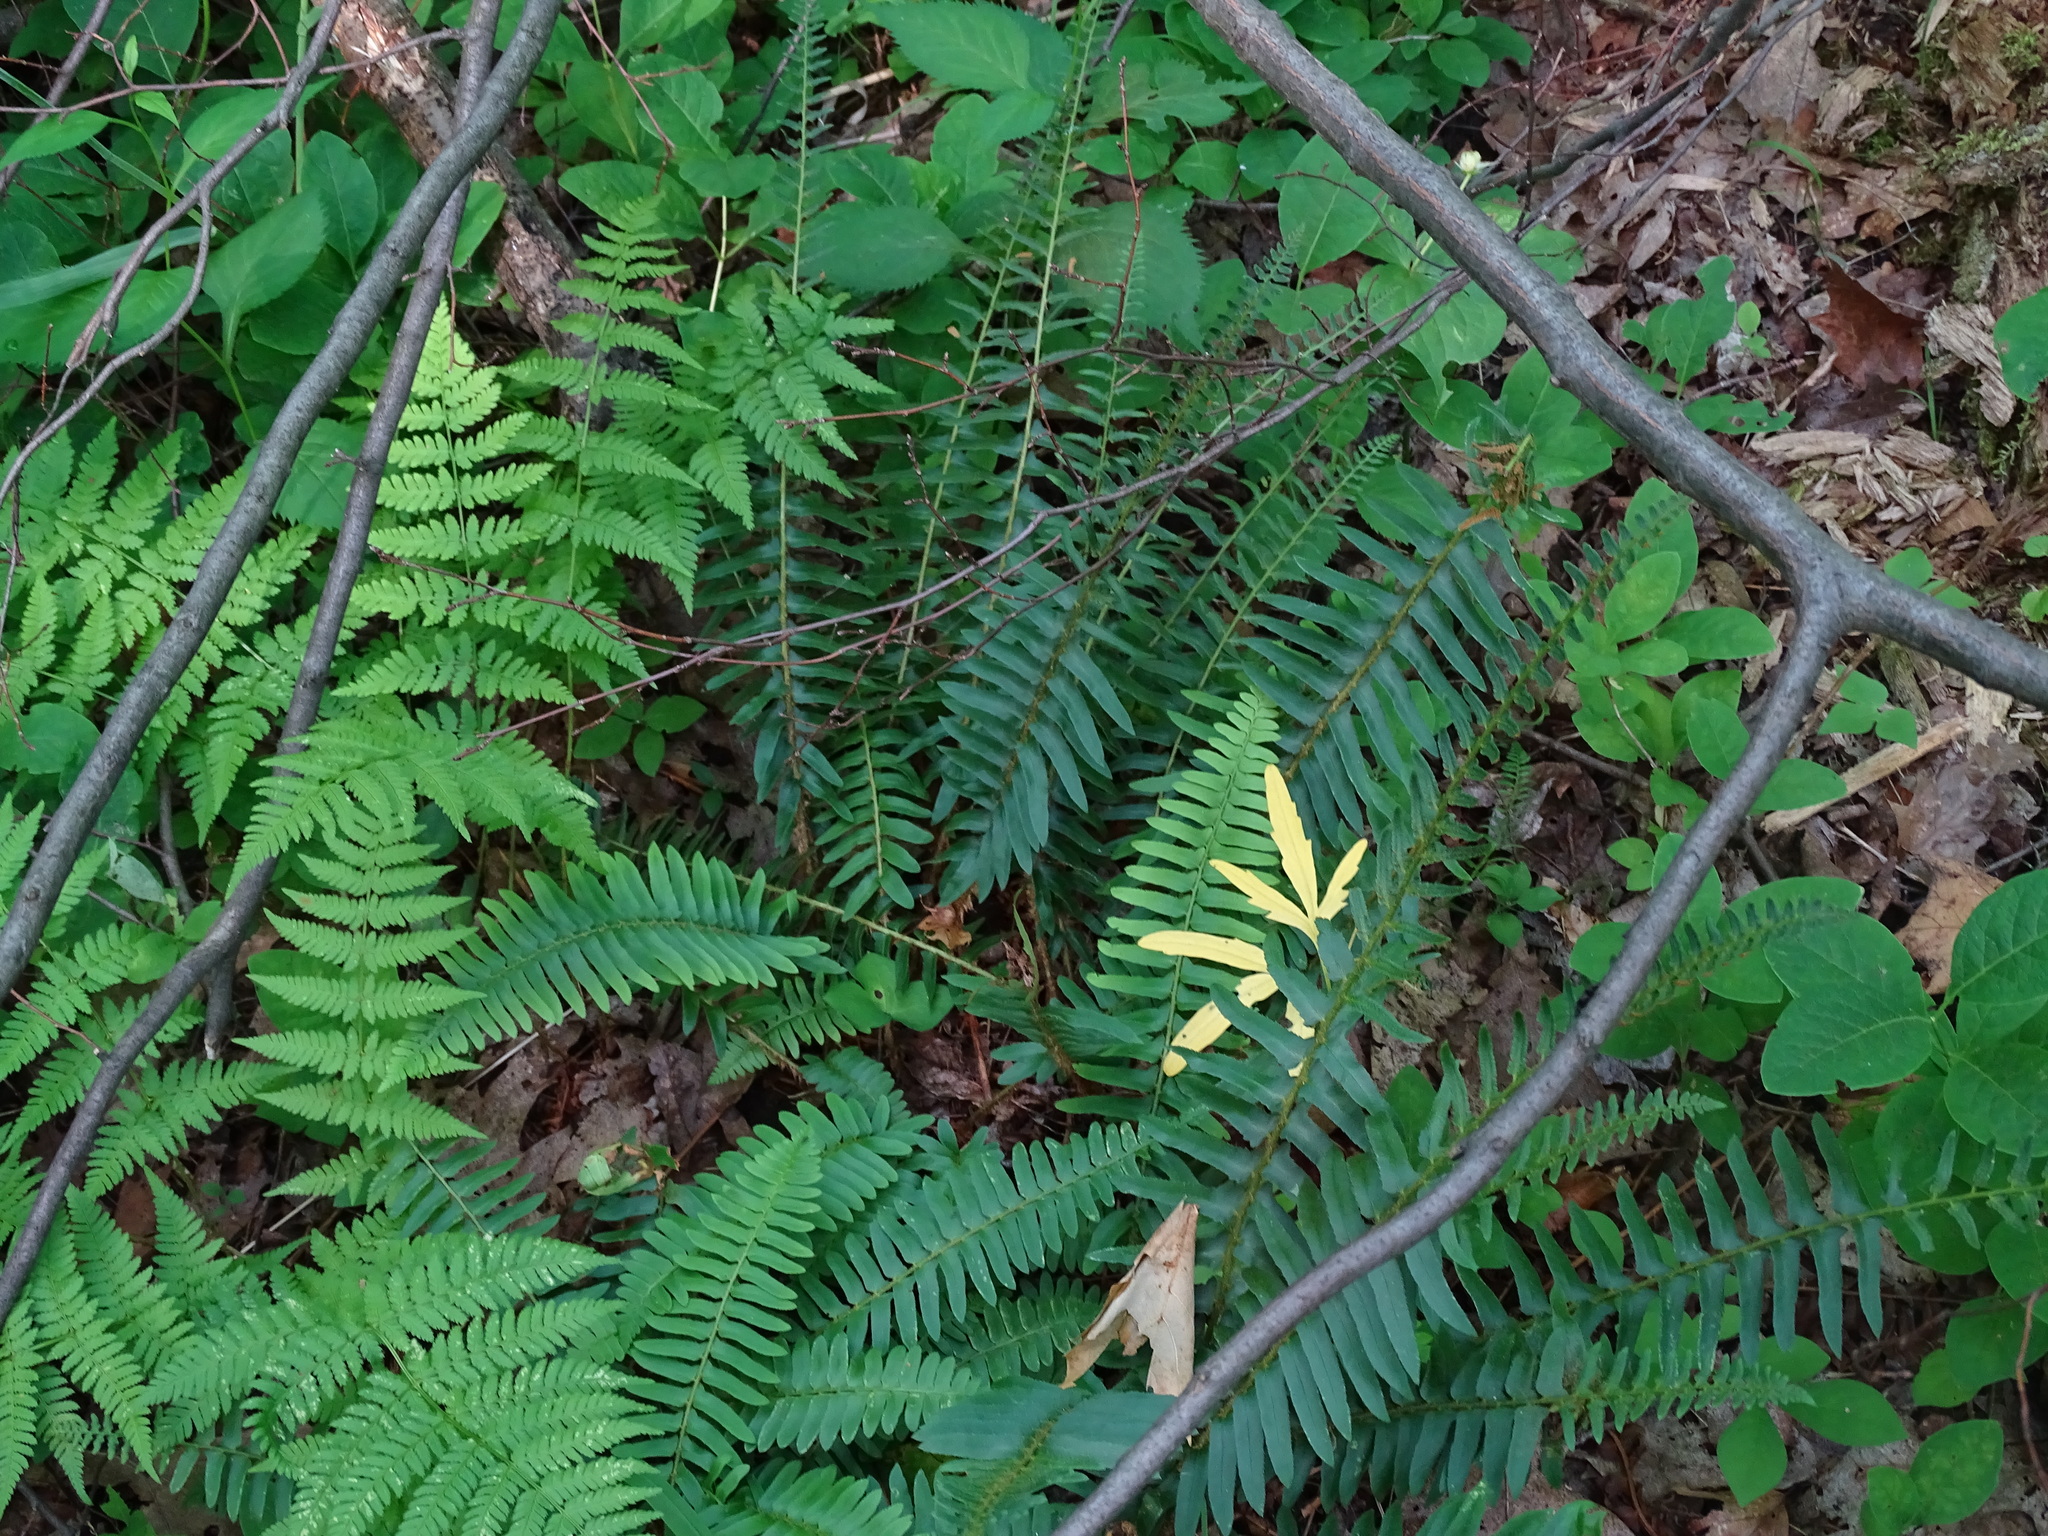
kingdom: Plantae
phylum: Tracheophyta
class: Polypodiopsida
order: Polypodiales
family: Dryopteridaceae
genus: Polystichum
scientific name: Polystichum acrostichoides
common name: Christmas fern
